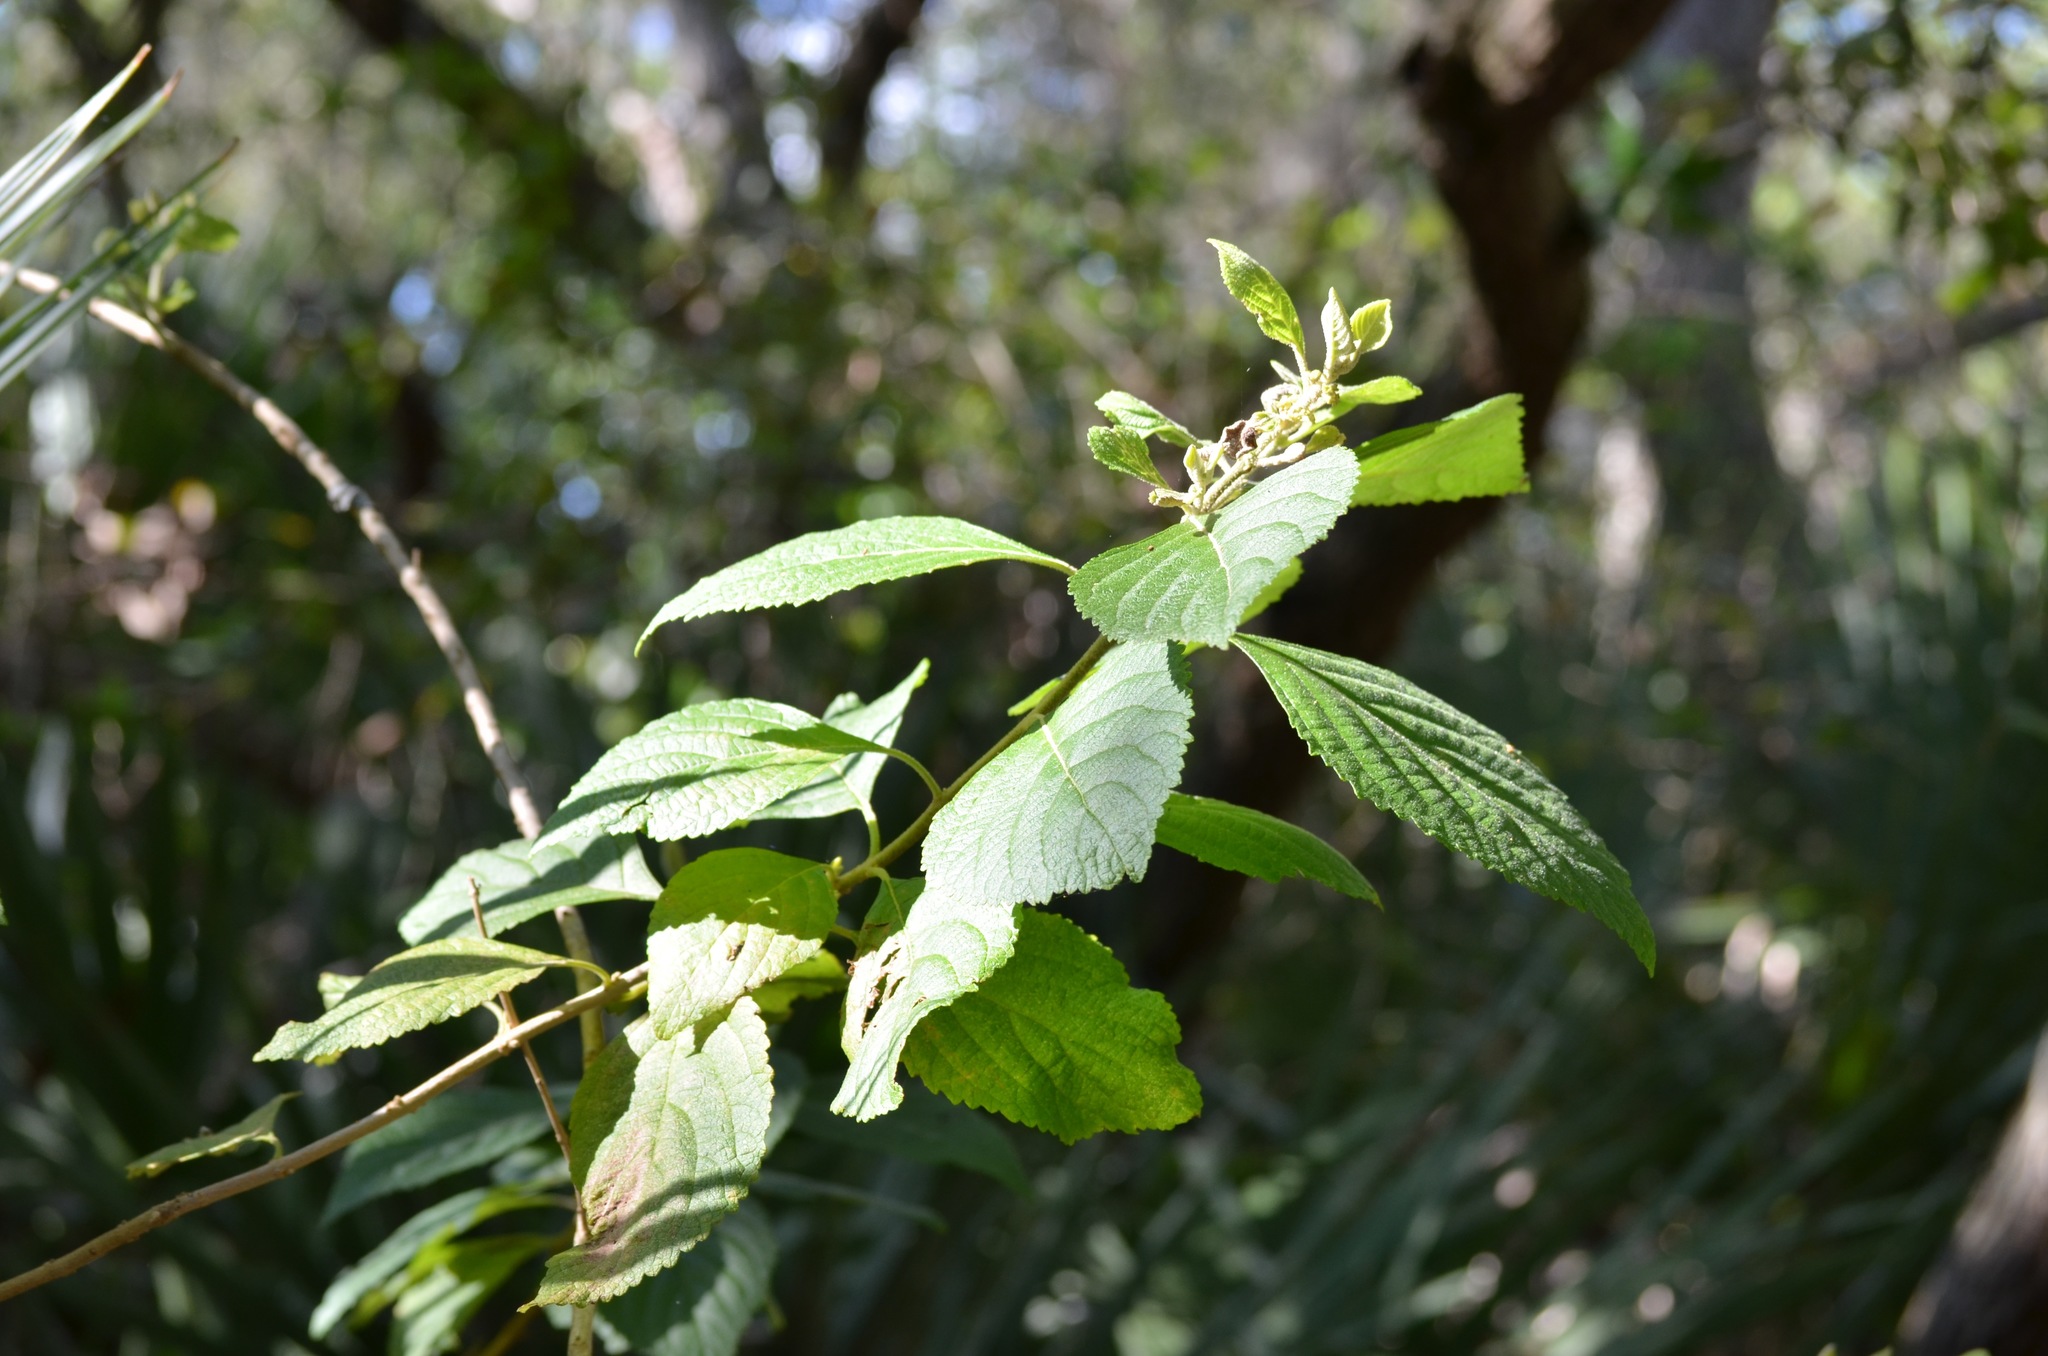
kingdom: Plantae
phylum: Tracheophyta
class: Magnoliopsida
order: Lamiales
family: Lamiaceae
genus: Callicarpa
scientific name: Callicarpa americana
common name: American beautyberry
